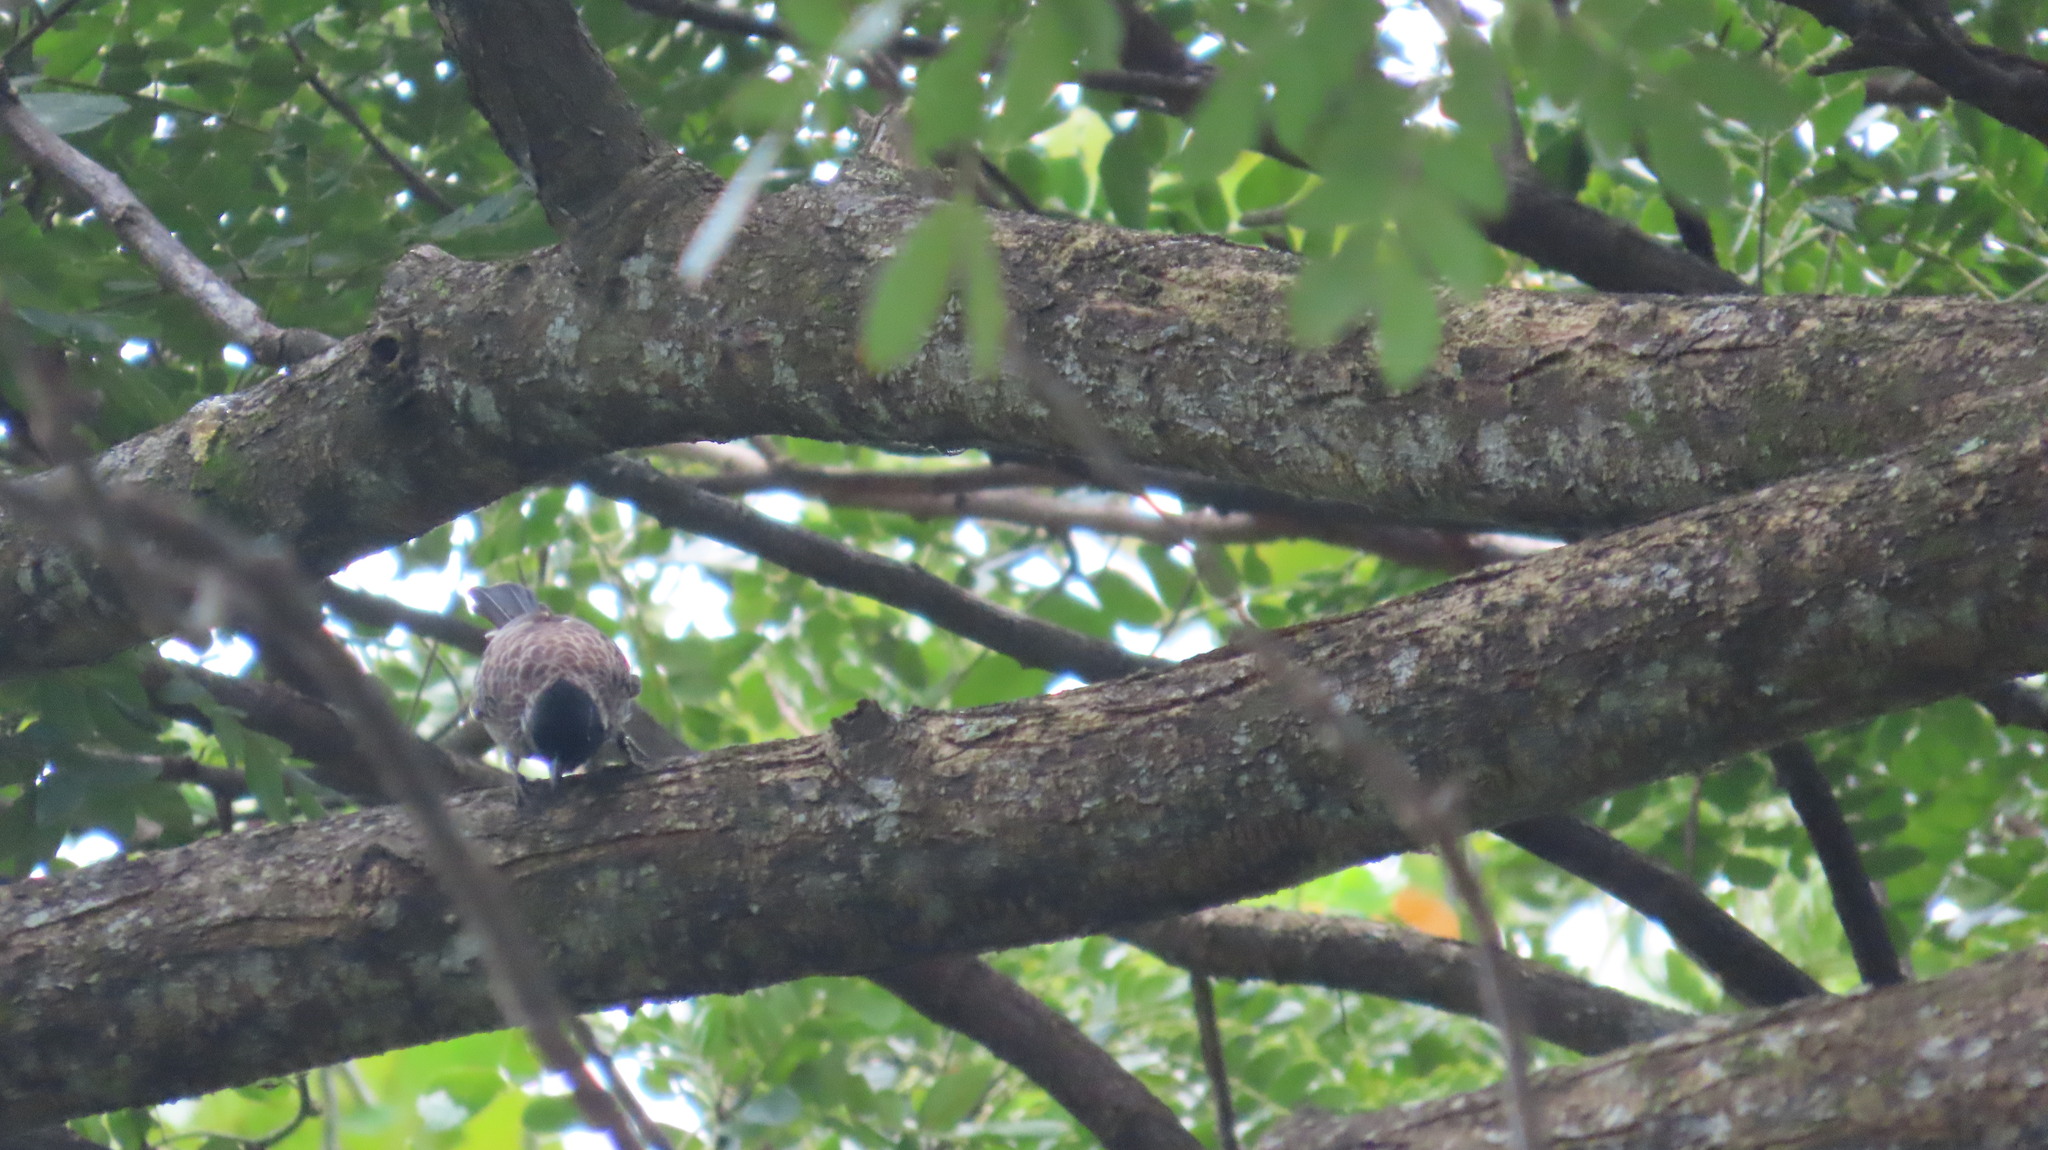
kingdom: Animalia
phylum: Chordata
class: Aves
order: Passeriformes
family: Pycnonotidae
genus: Pycnonotus
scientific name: Pycnonotus cafer
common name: Red-vented bulbul
